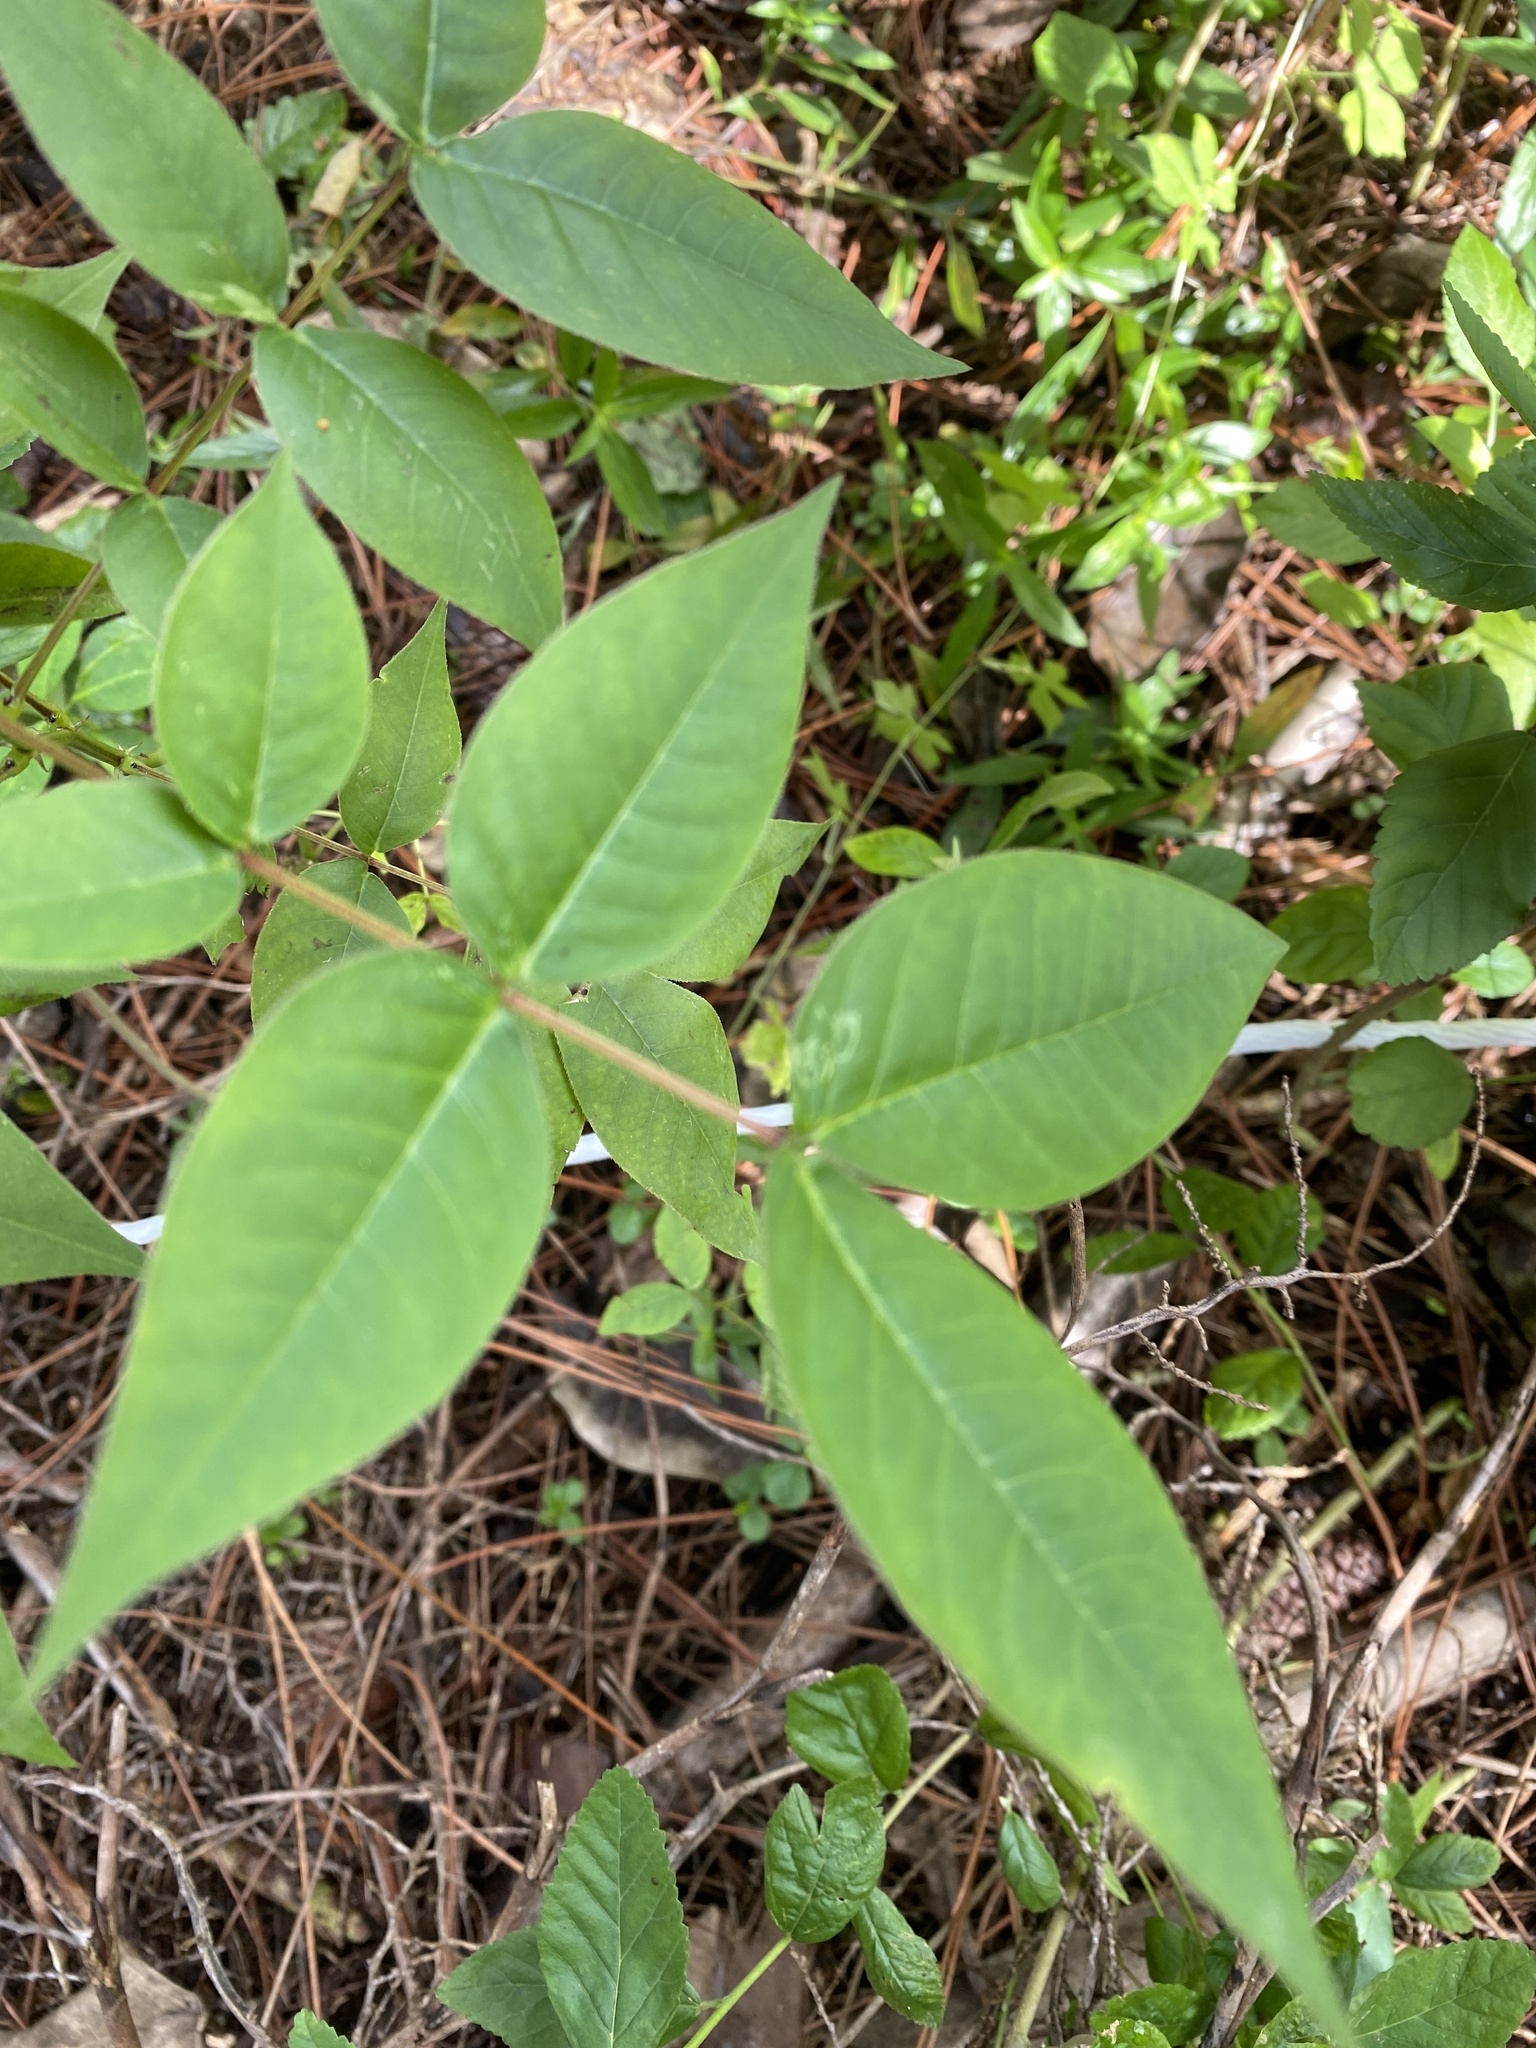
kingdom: Plantae
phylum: Tracheophyta
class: Magnoliopsida
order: Fabales
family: Fabaceae
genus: Senna
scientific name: Senna occidentalis
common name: Septicweed
